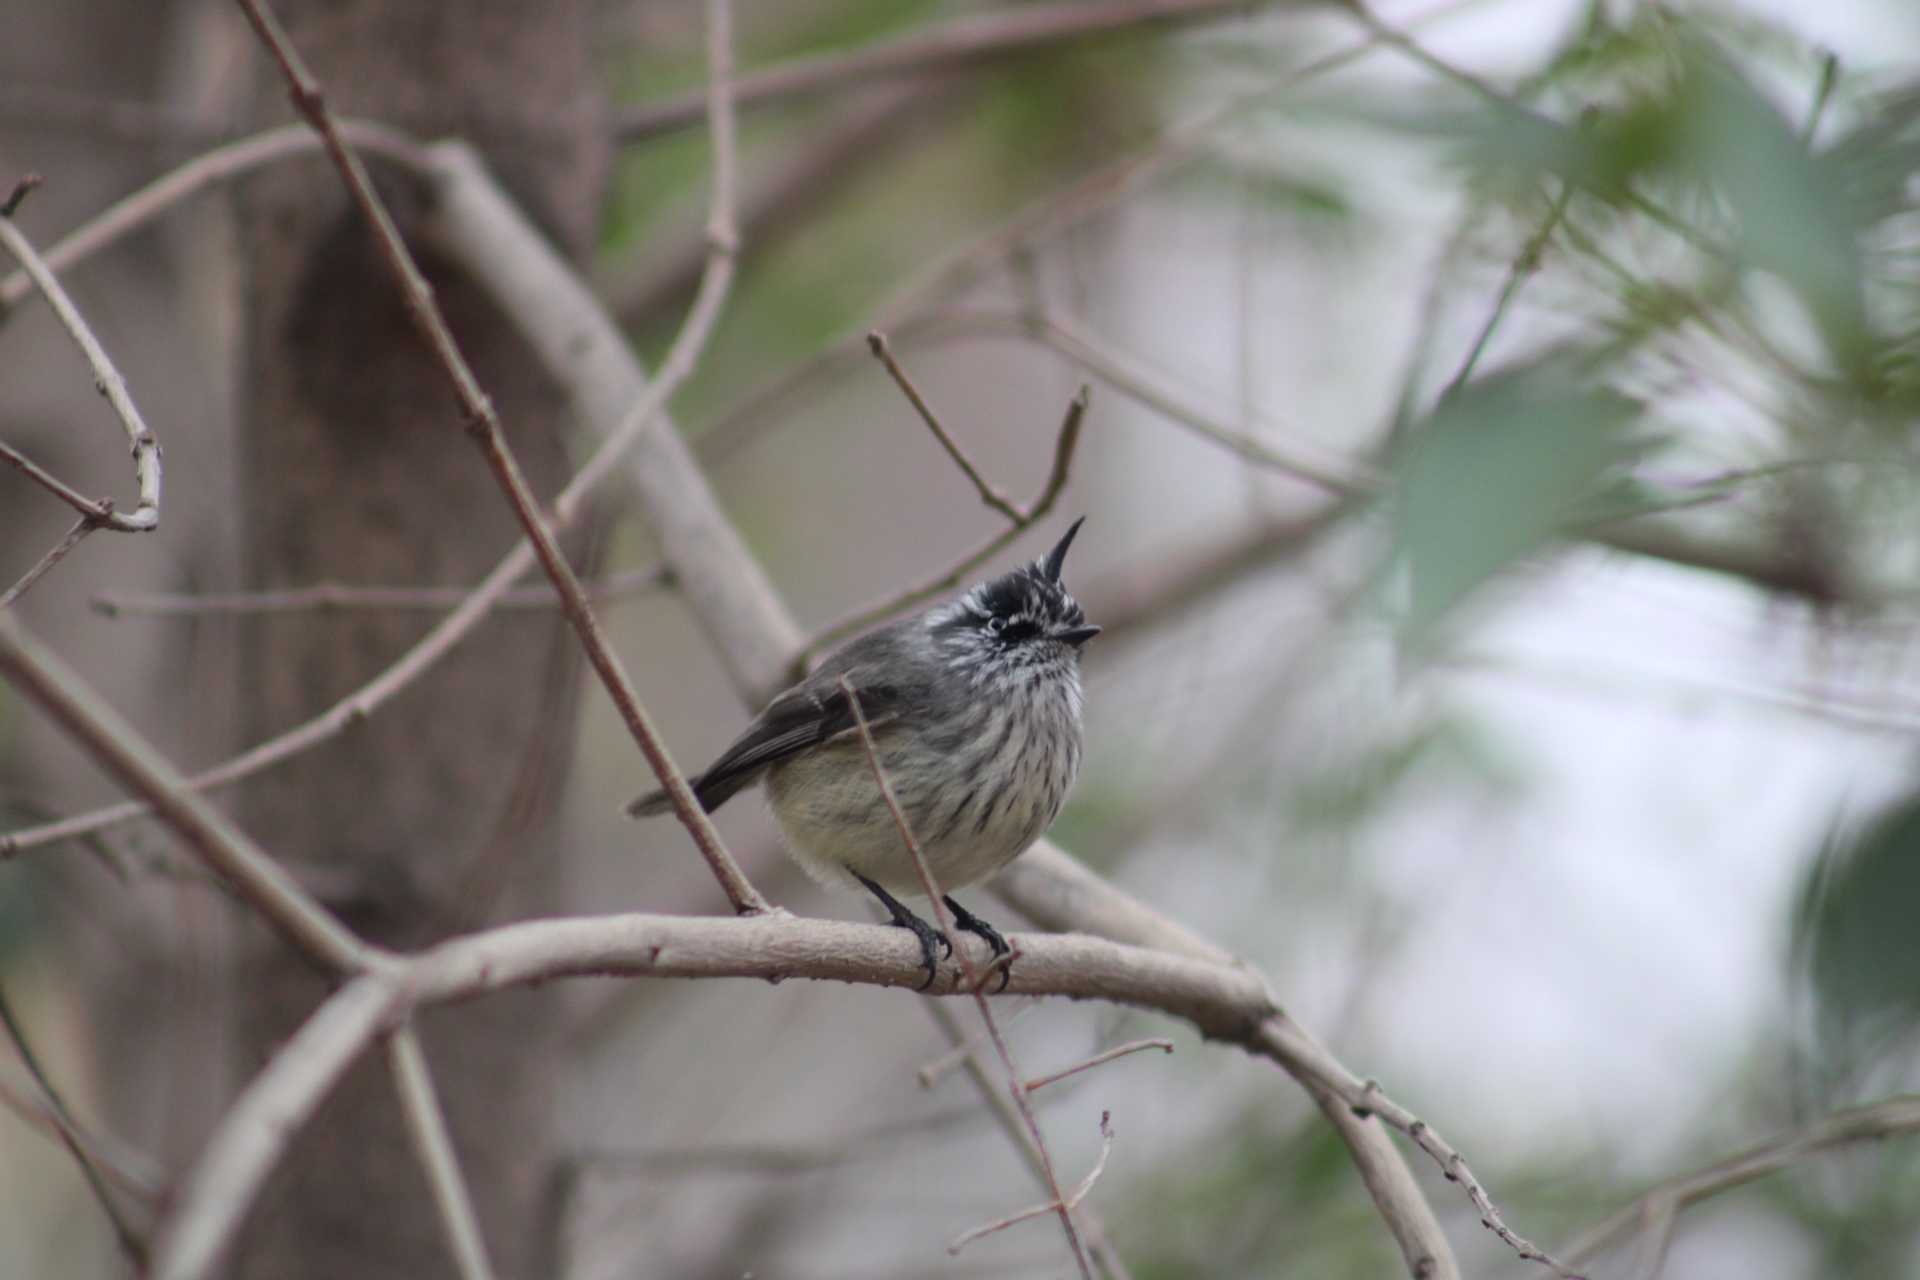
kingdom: Animalia
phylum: Chordata
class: Aves
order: Passeriformes
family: Tyrannidae
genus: Anairetes
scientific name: Anairetes parulus
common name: Tufted tit-tyrant
